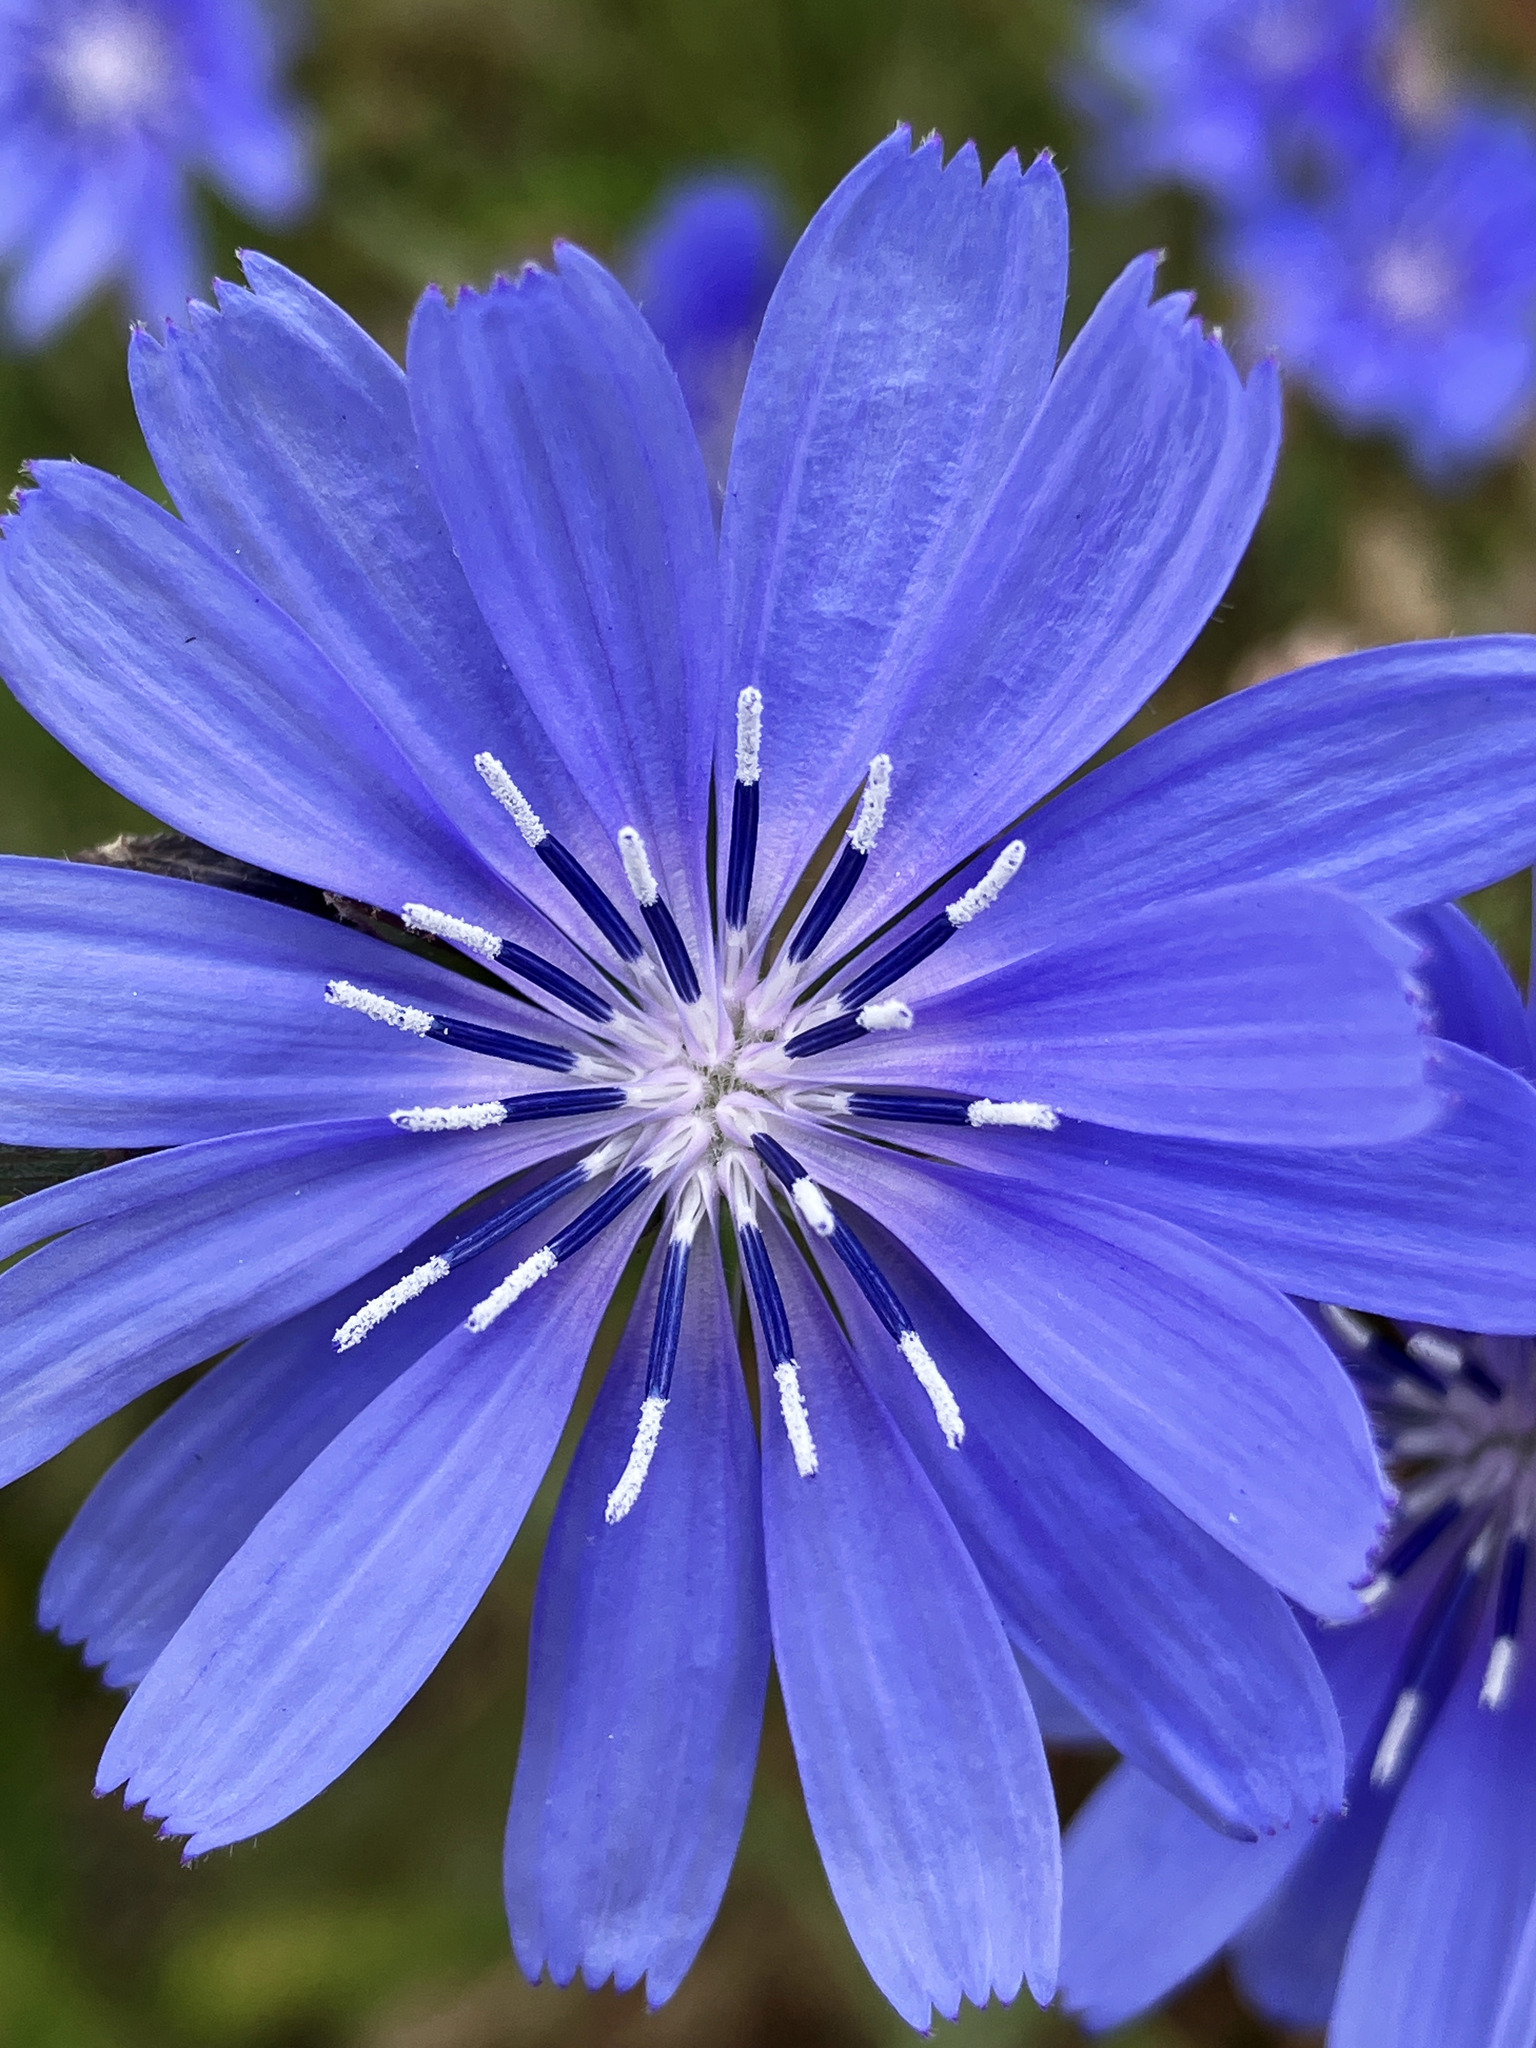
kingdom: Plantae
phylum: Tracheophyta
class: Magnoliopsida
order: Asterales
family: Asteraceae
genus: Cichorium
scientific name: Cichorium intybus
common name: Chicory
